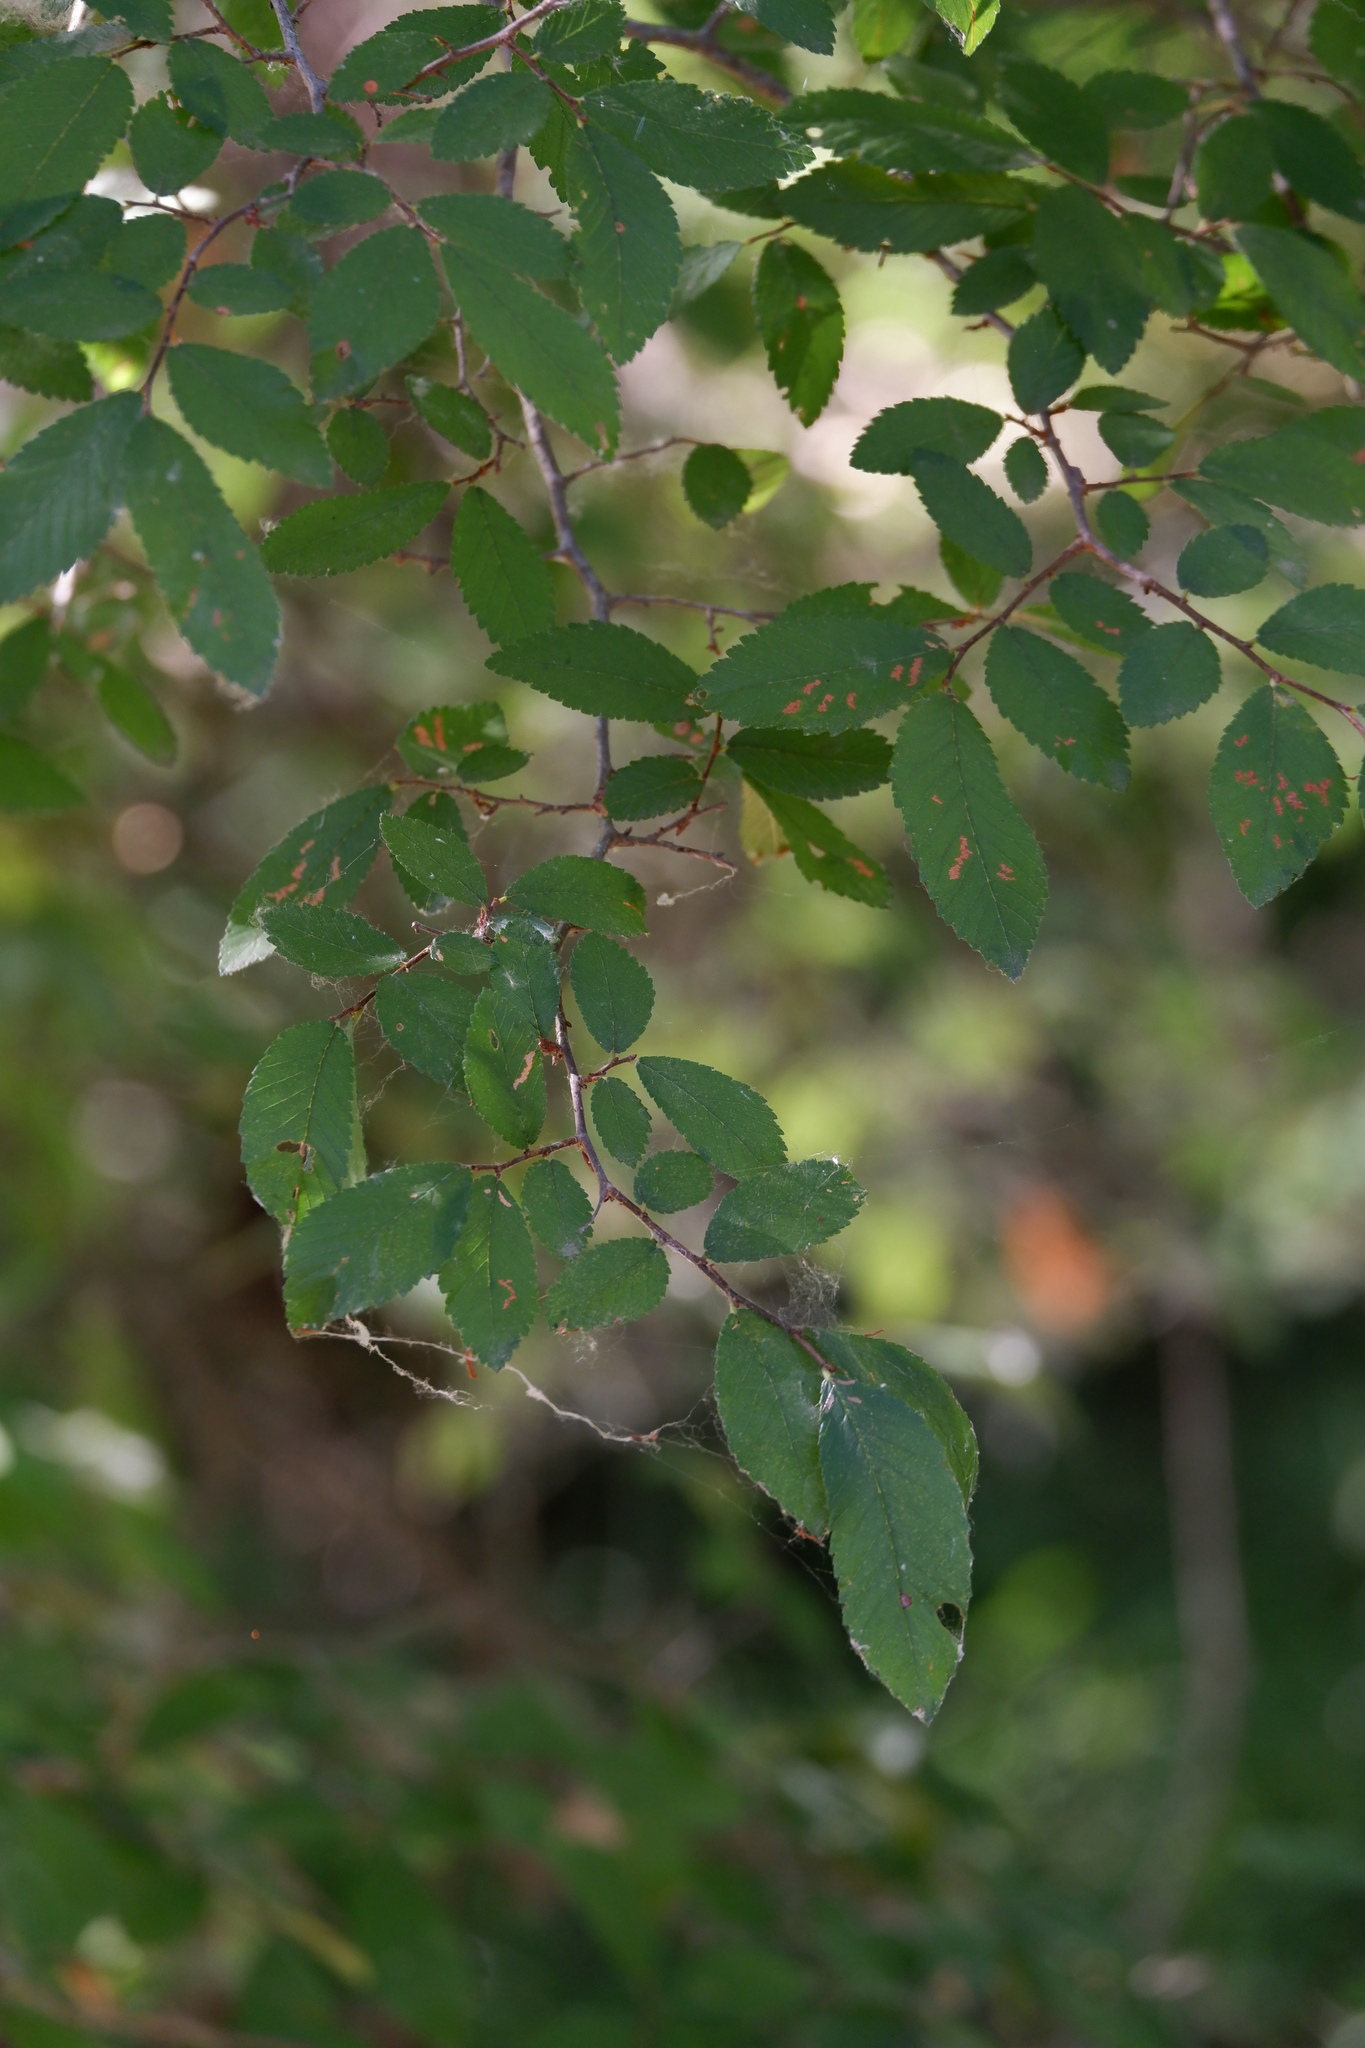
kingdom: Plantae
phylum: Tracheophyta
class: Magnoliopsida
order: Rosales
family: Ulmaceae
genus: Ulmus
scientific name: Ulmus crassifolia
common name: Basket elm
